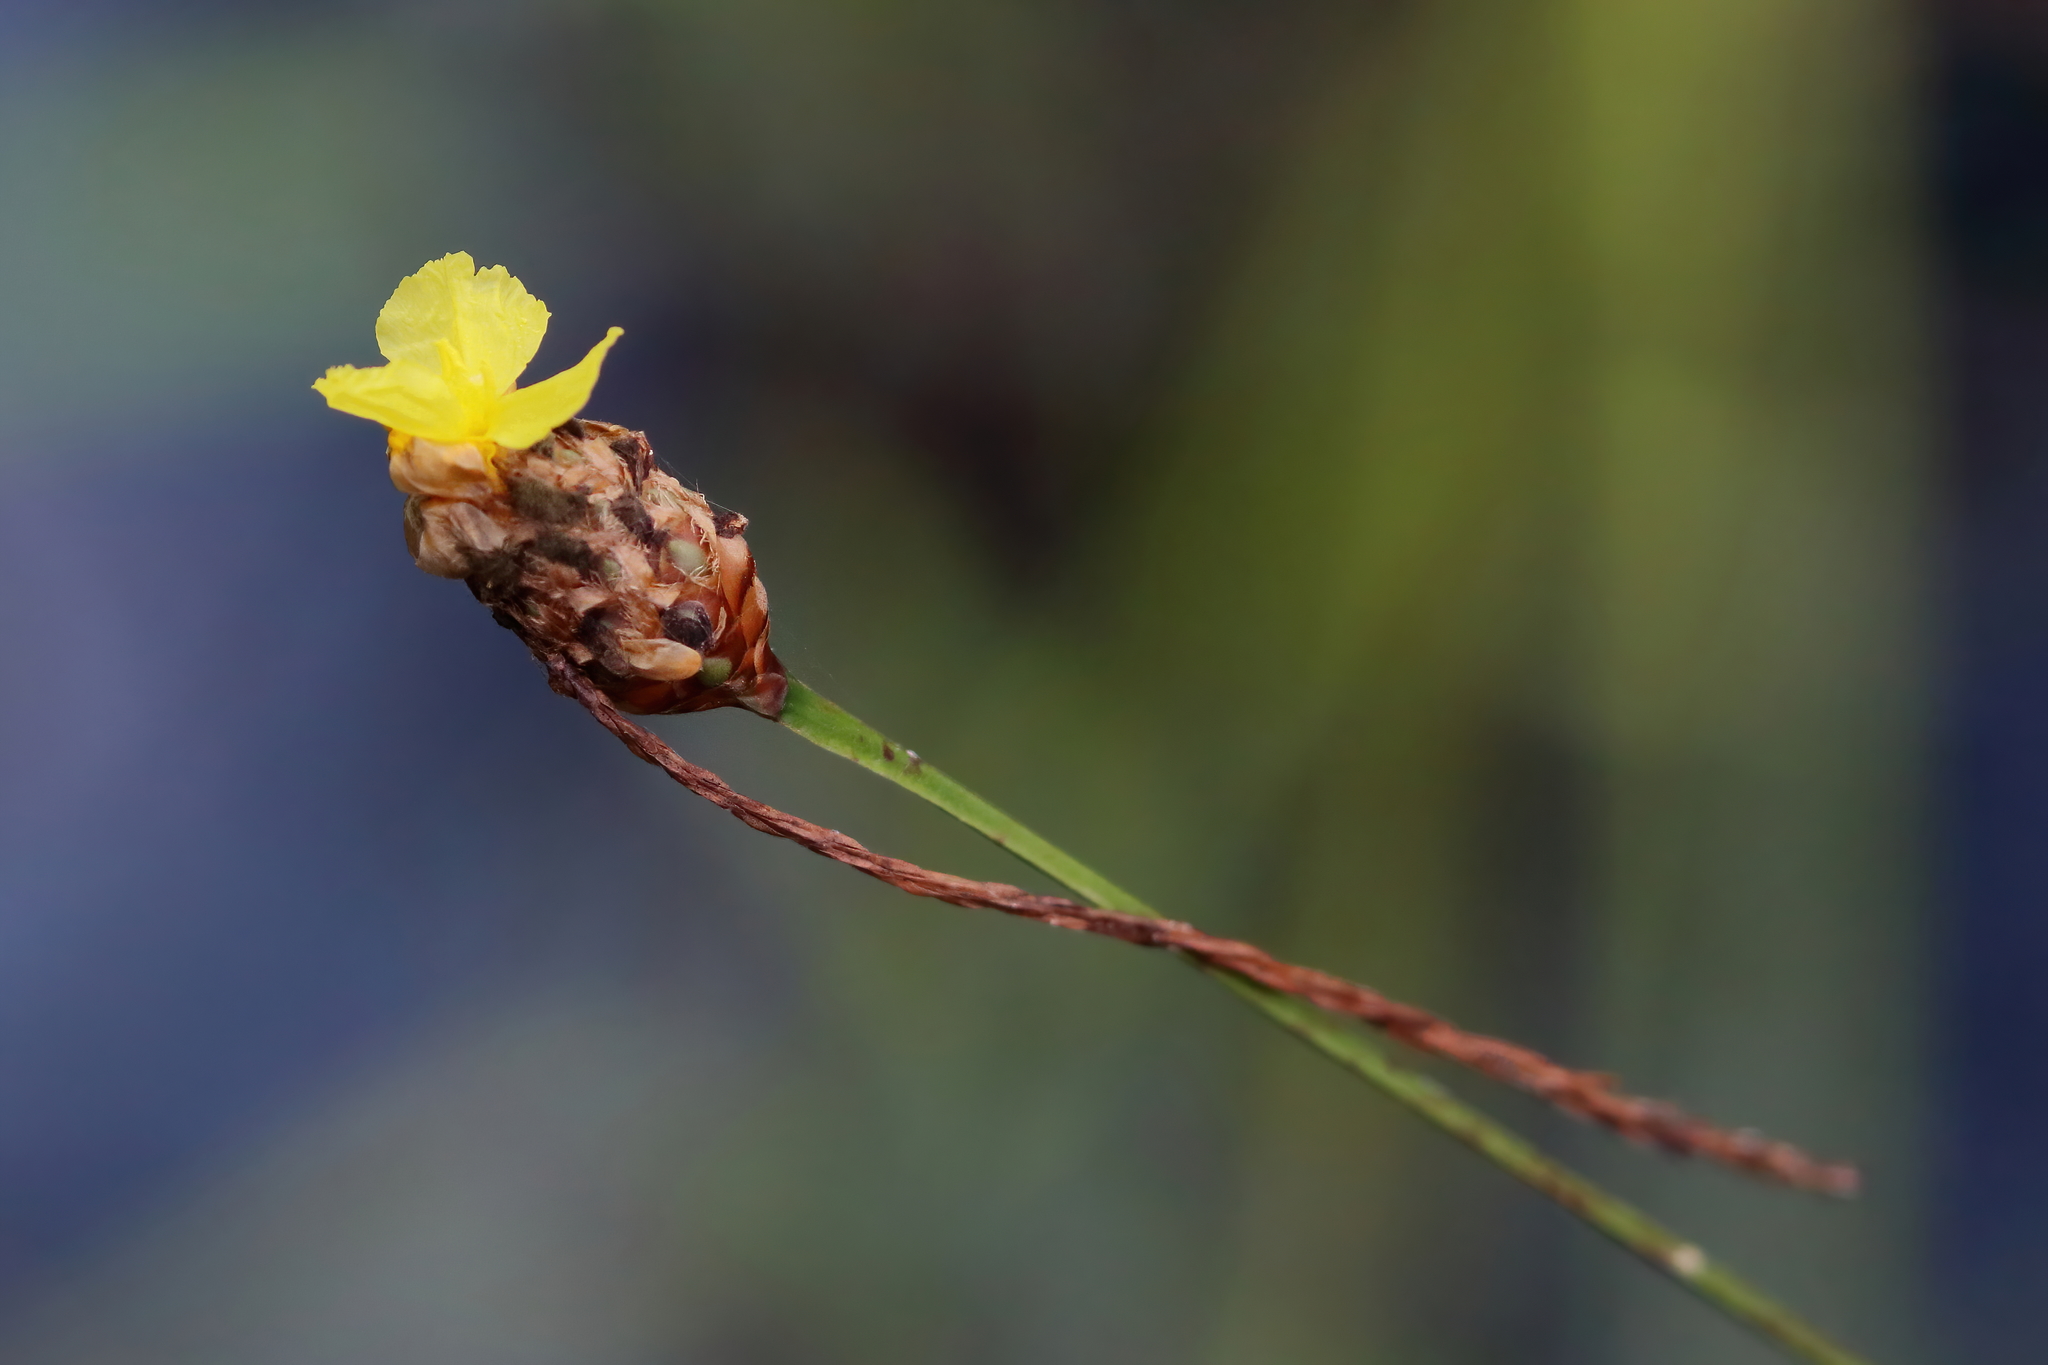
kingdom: Plantae
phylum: Tracheophyta
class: Liliopsida
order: Poales
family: Xyridaceae
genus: Xyris
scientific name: Xyris fimbriata
